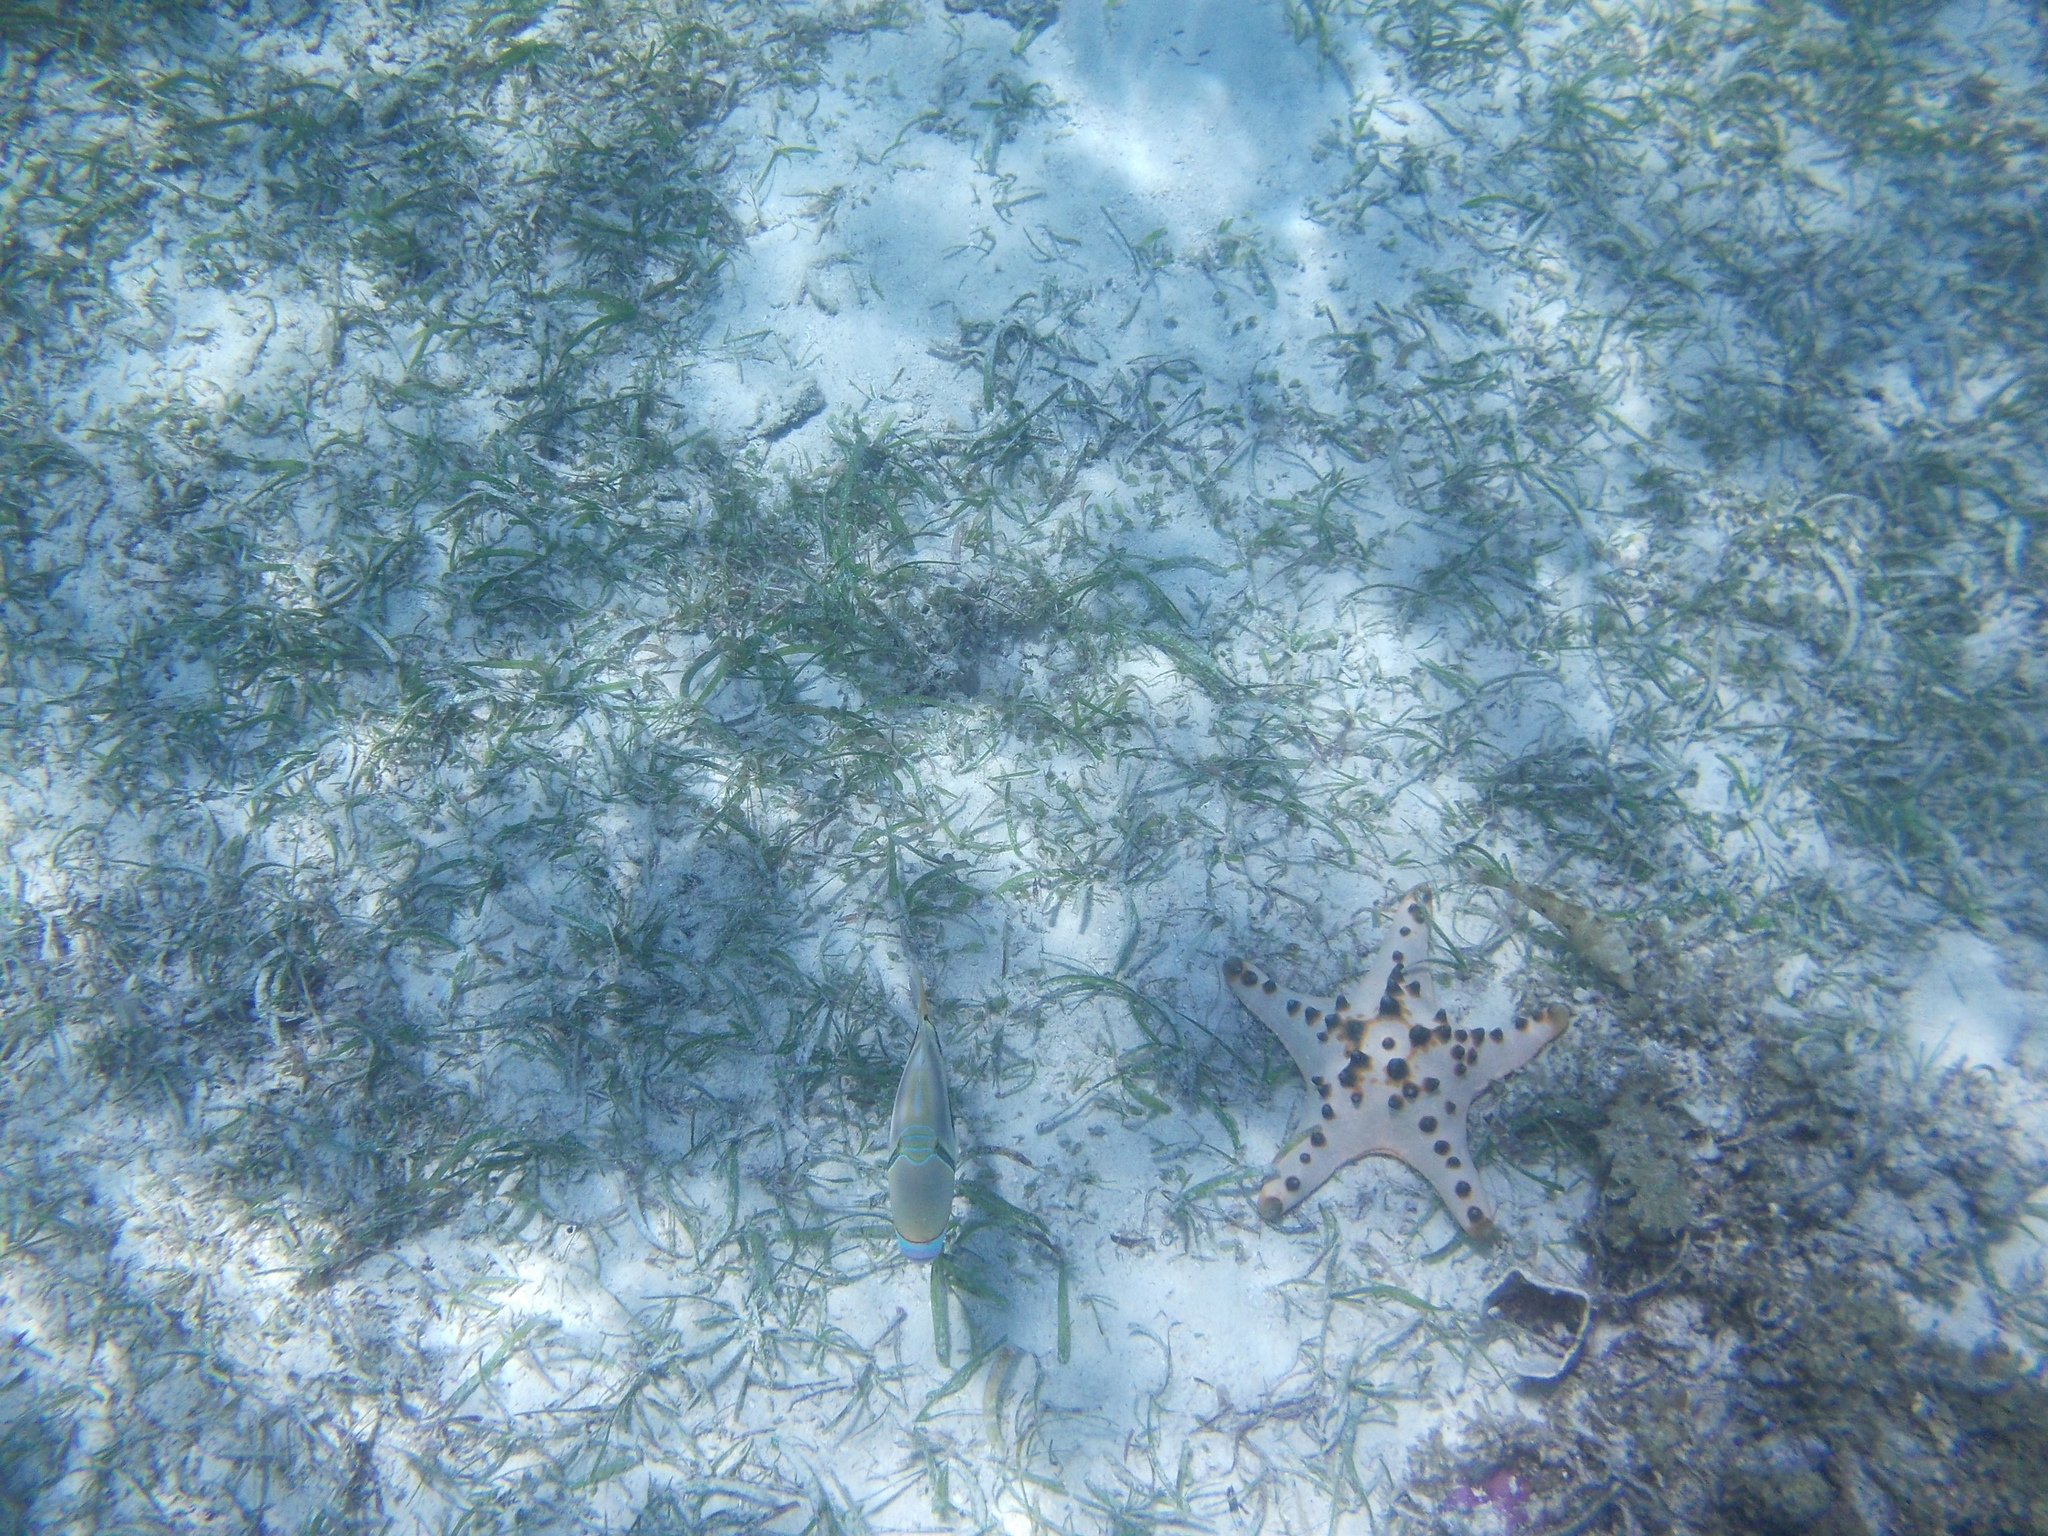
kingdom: Animalia
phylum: Echinodermata
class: Asteroidea
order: Valvatida
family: Oreasteridae
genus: Protoreaster
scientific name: Protoreaster nodosus
